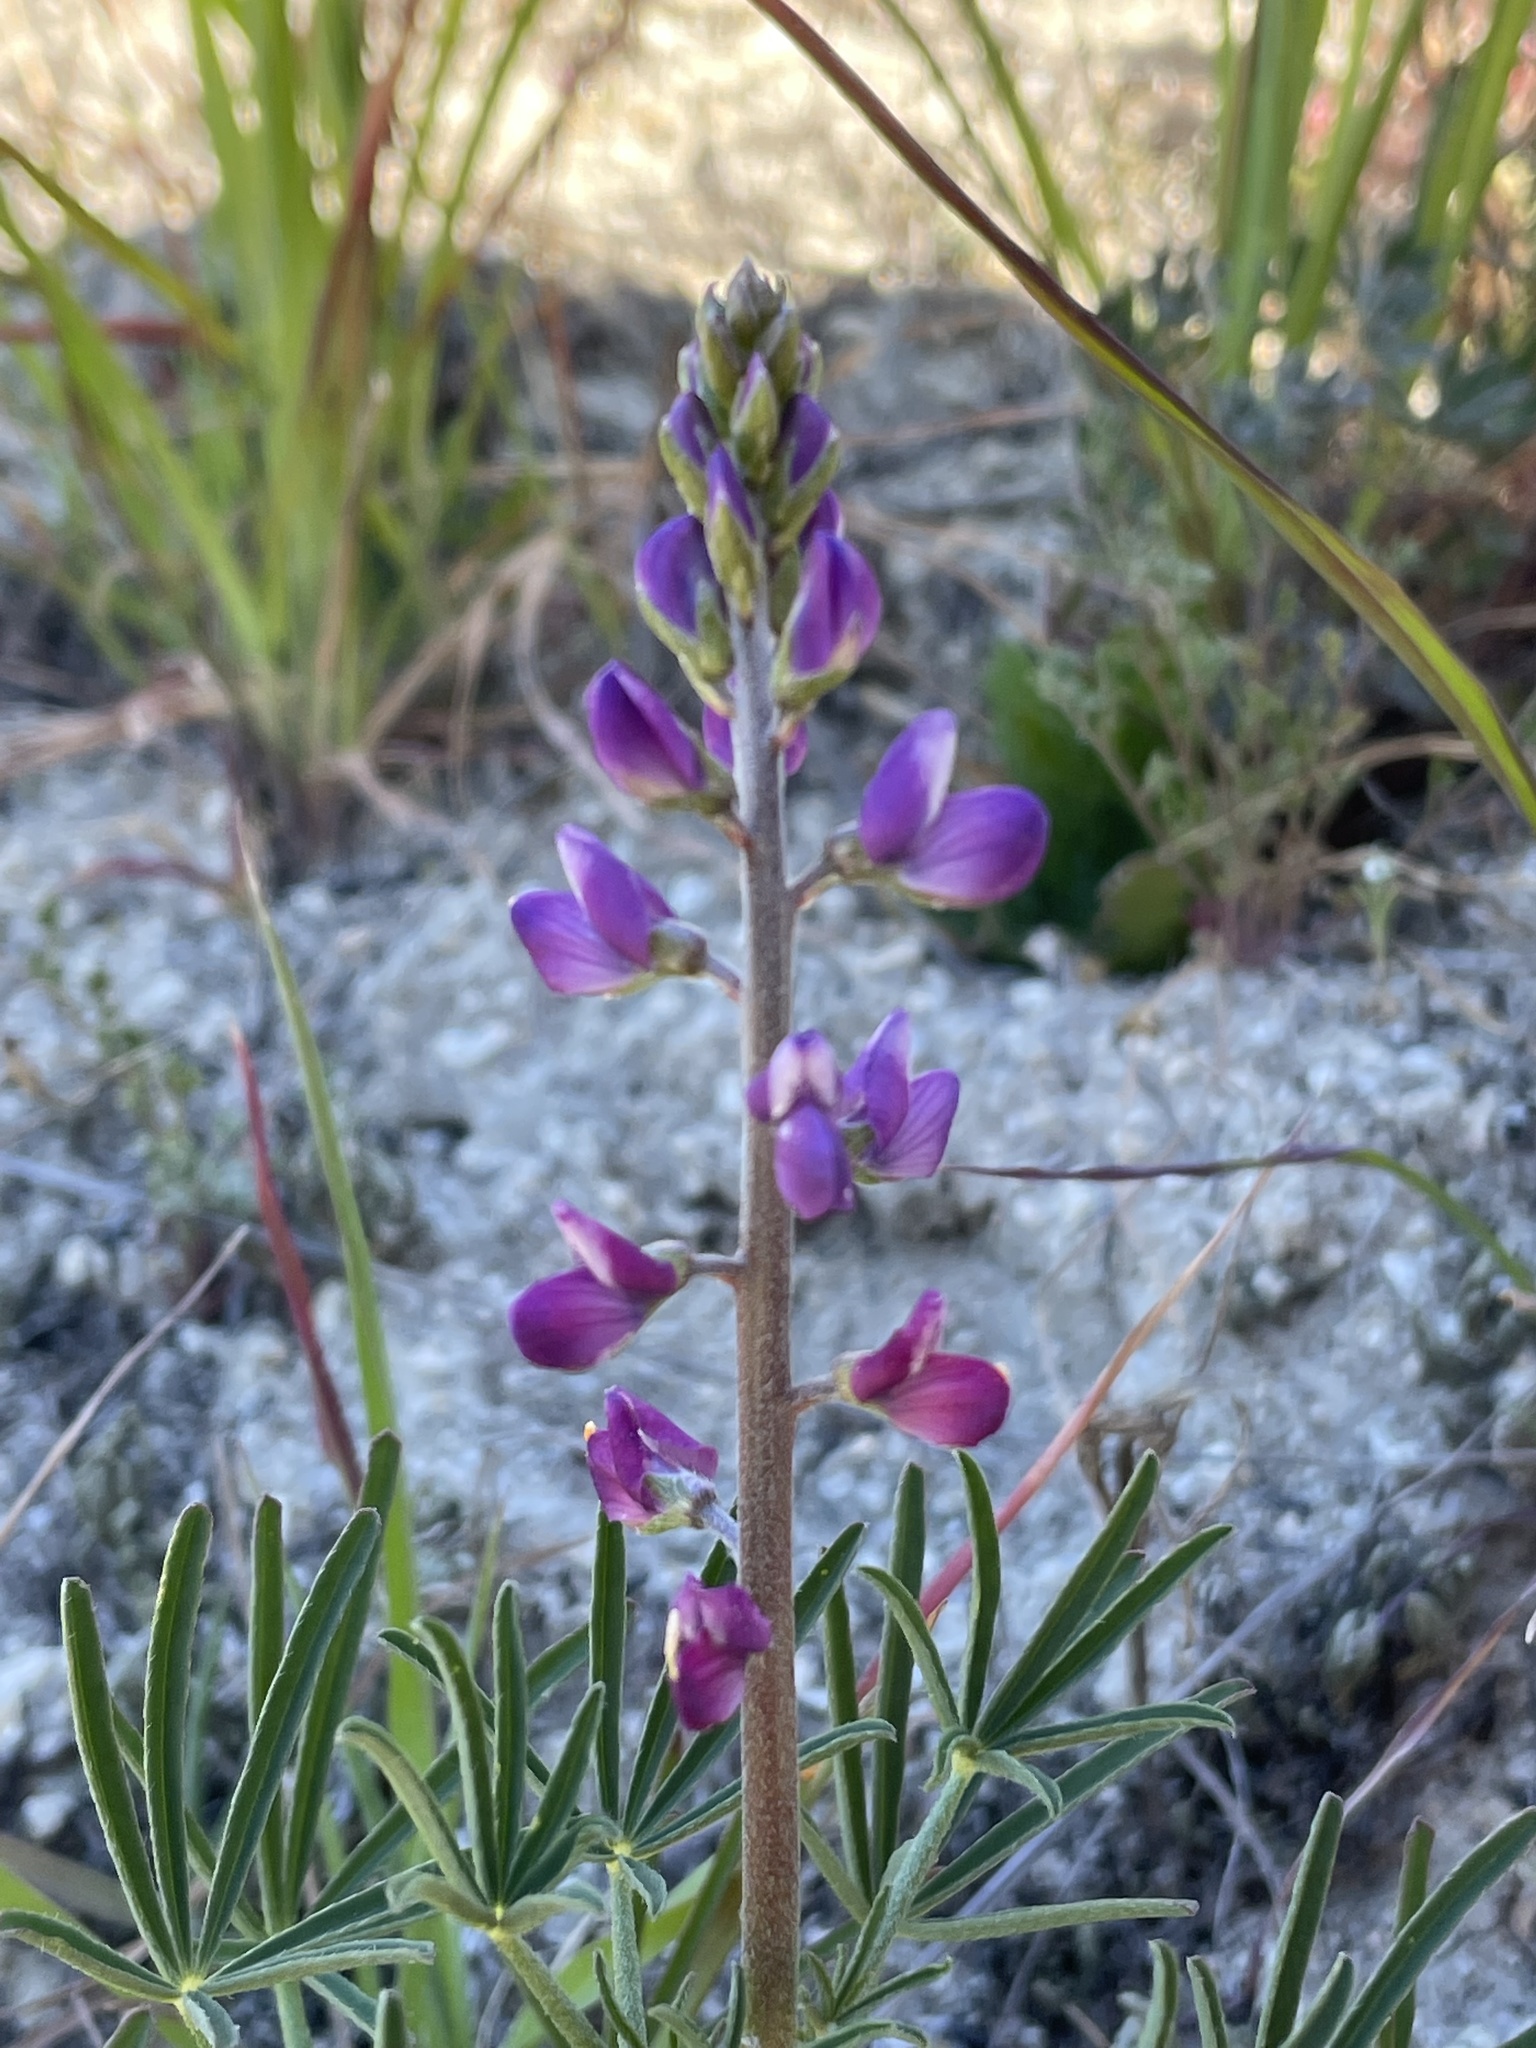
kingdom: Plantae
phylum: Tracheophyta
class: Magnoliopsida
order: Fabales
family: Fabaceae
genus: Lupinus
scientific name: Lupinus truncatus
